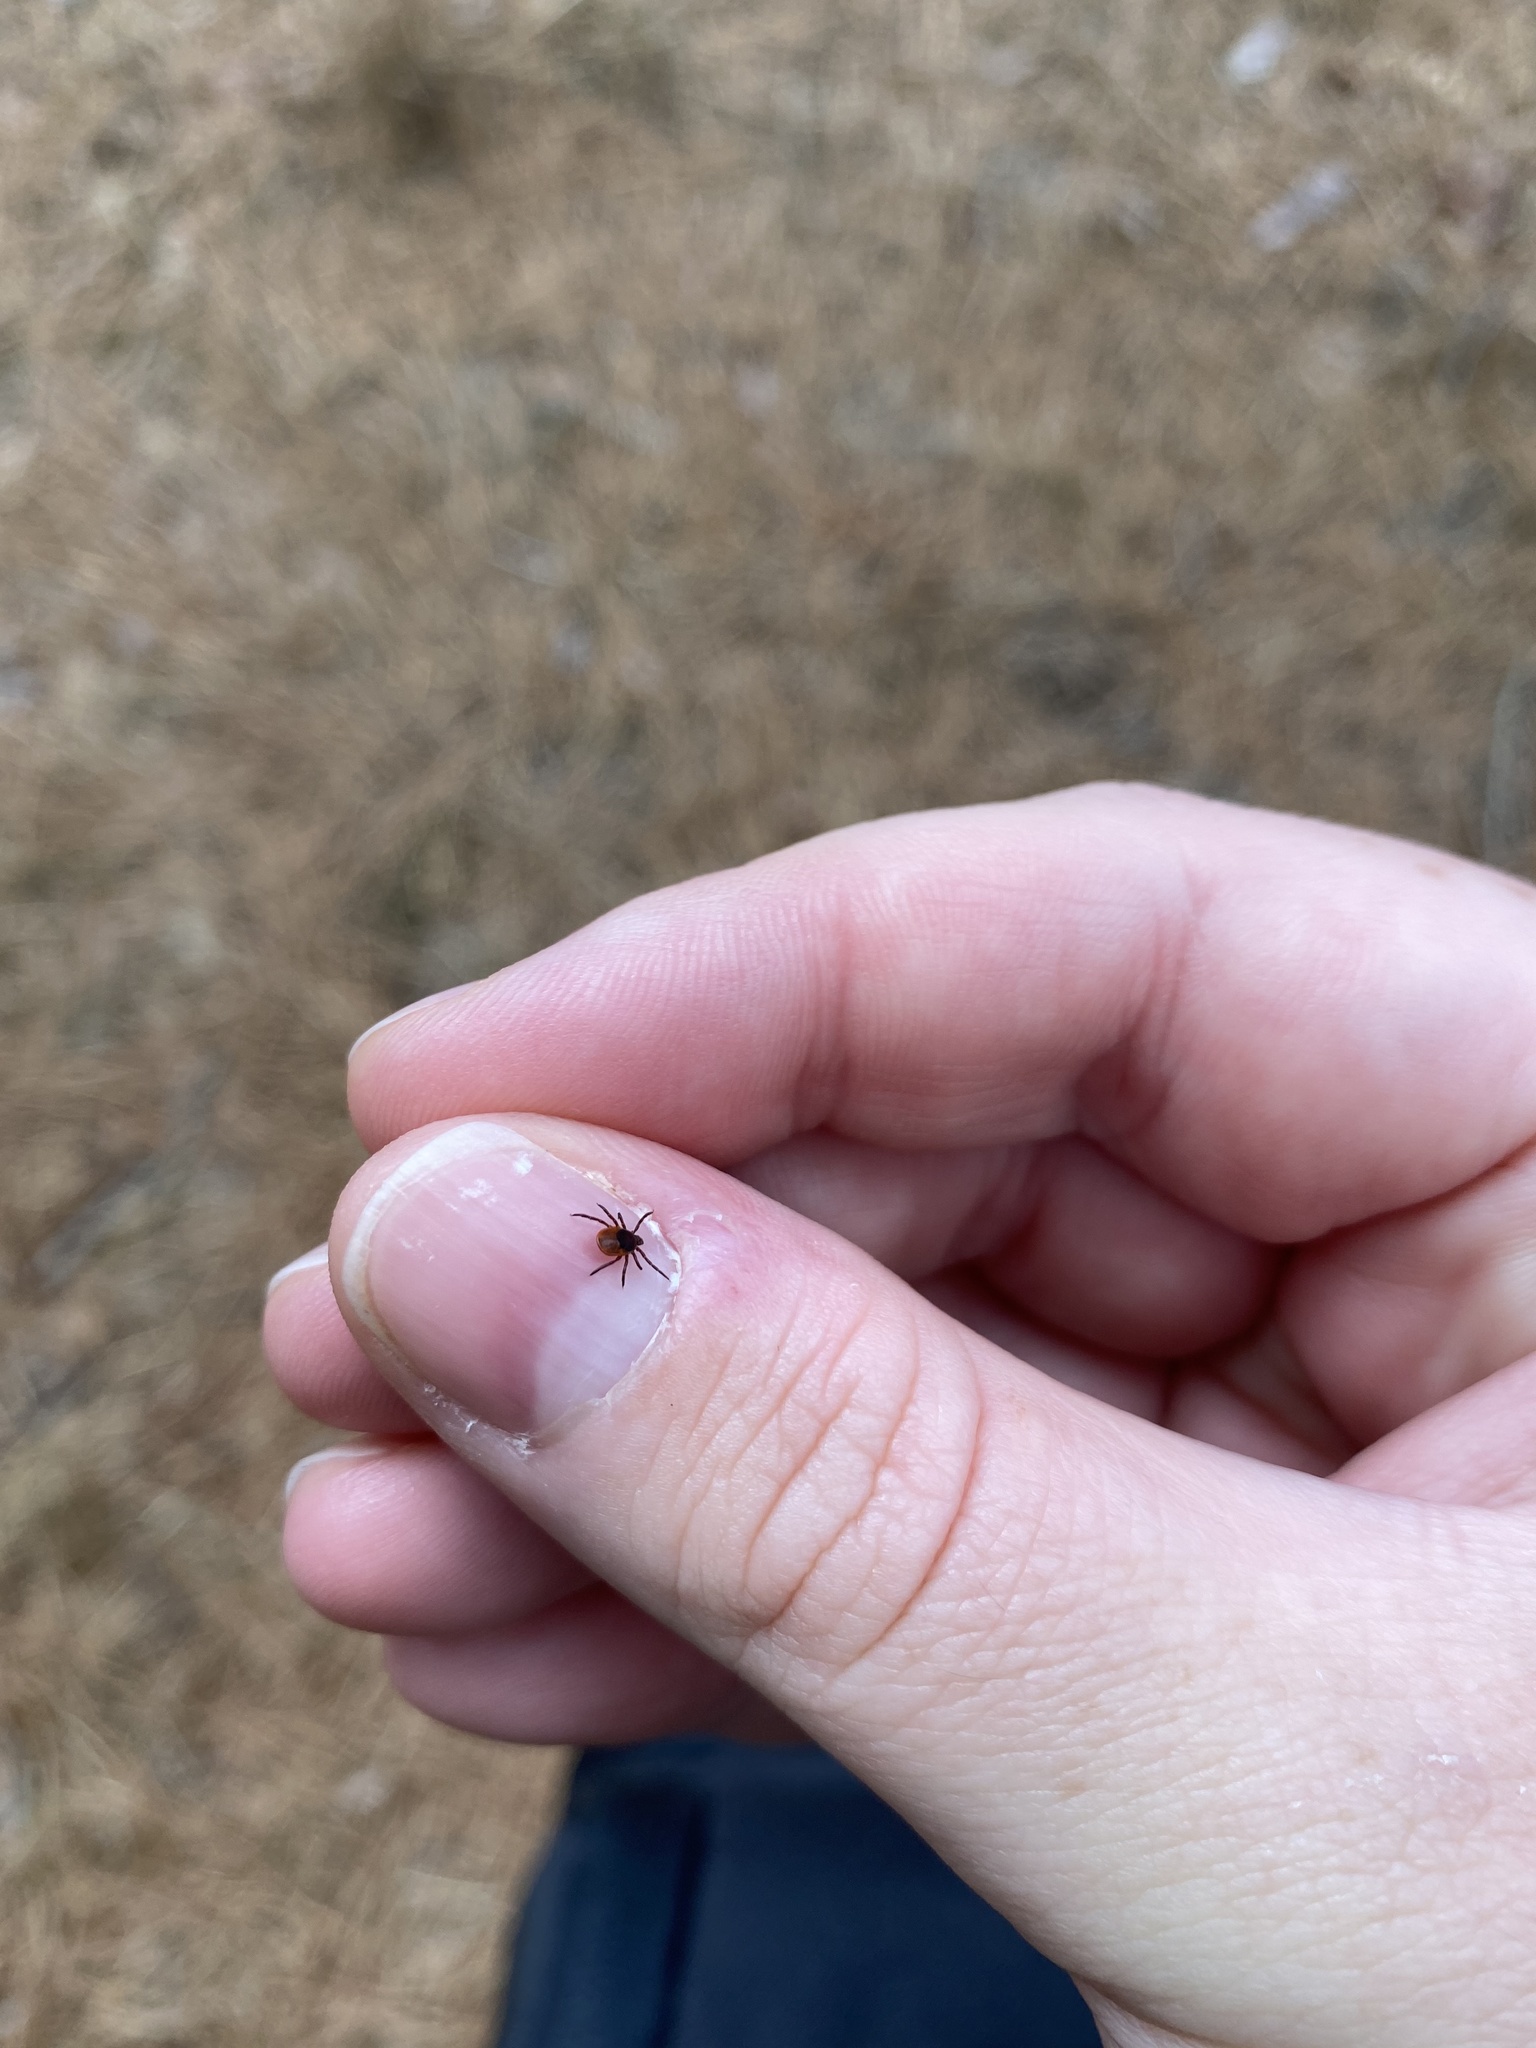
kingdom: Animalia
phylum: Arthropoda
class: Arachnida
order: Ixodida
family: Ixodidae
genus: Ixodes
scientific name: Ixodes scapularis
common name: Black legged tick
